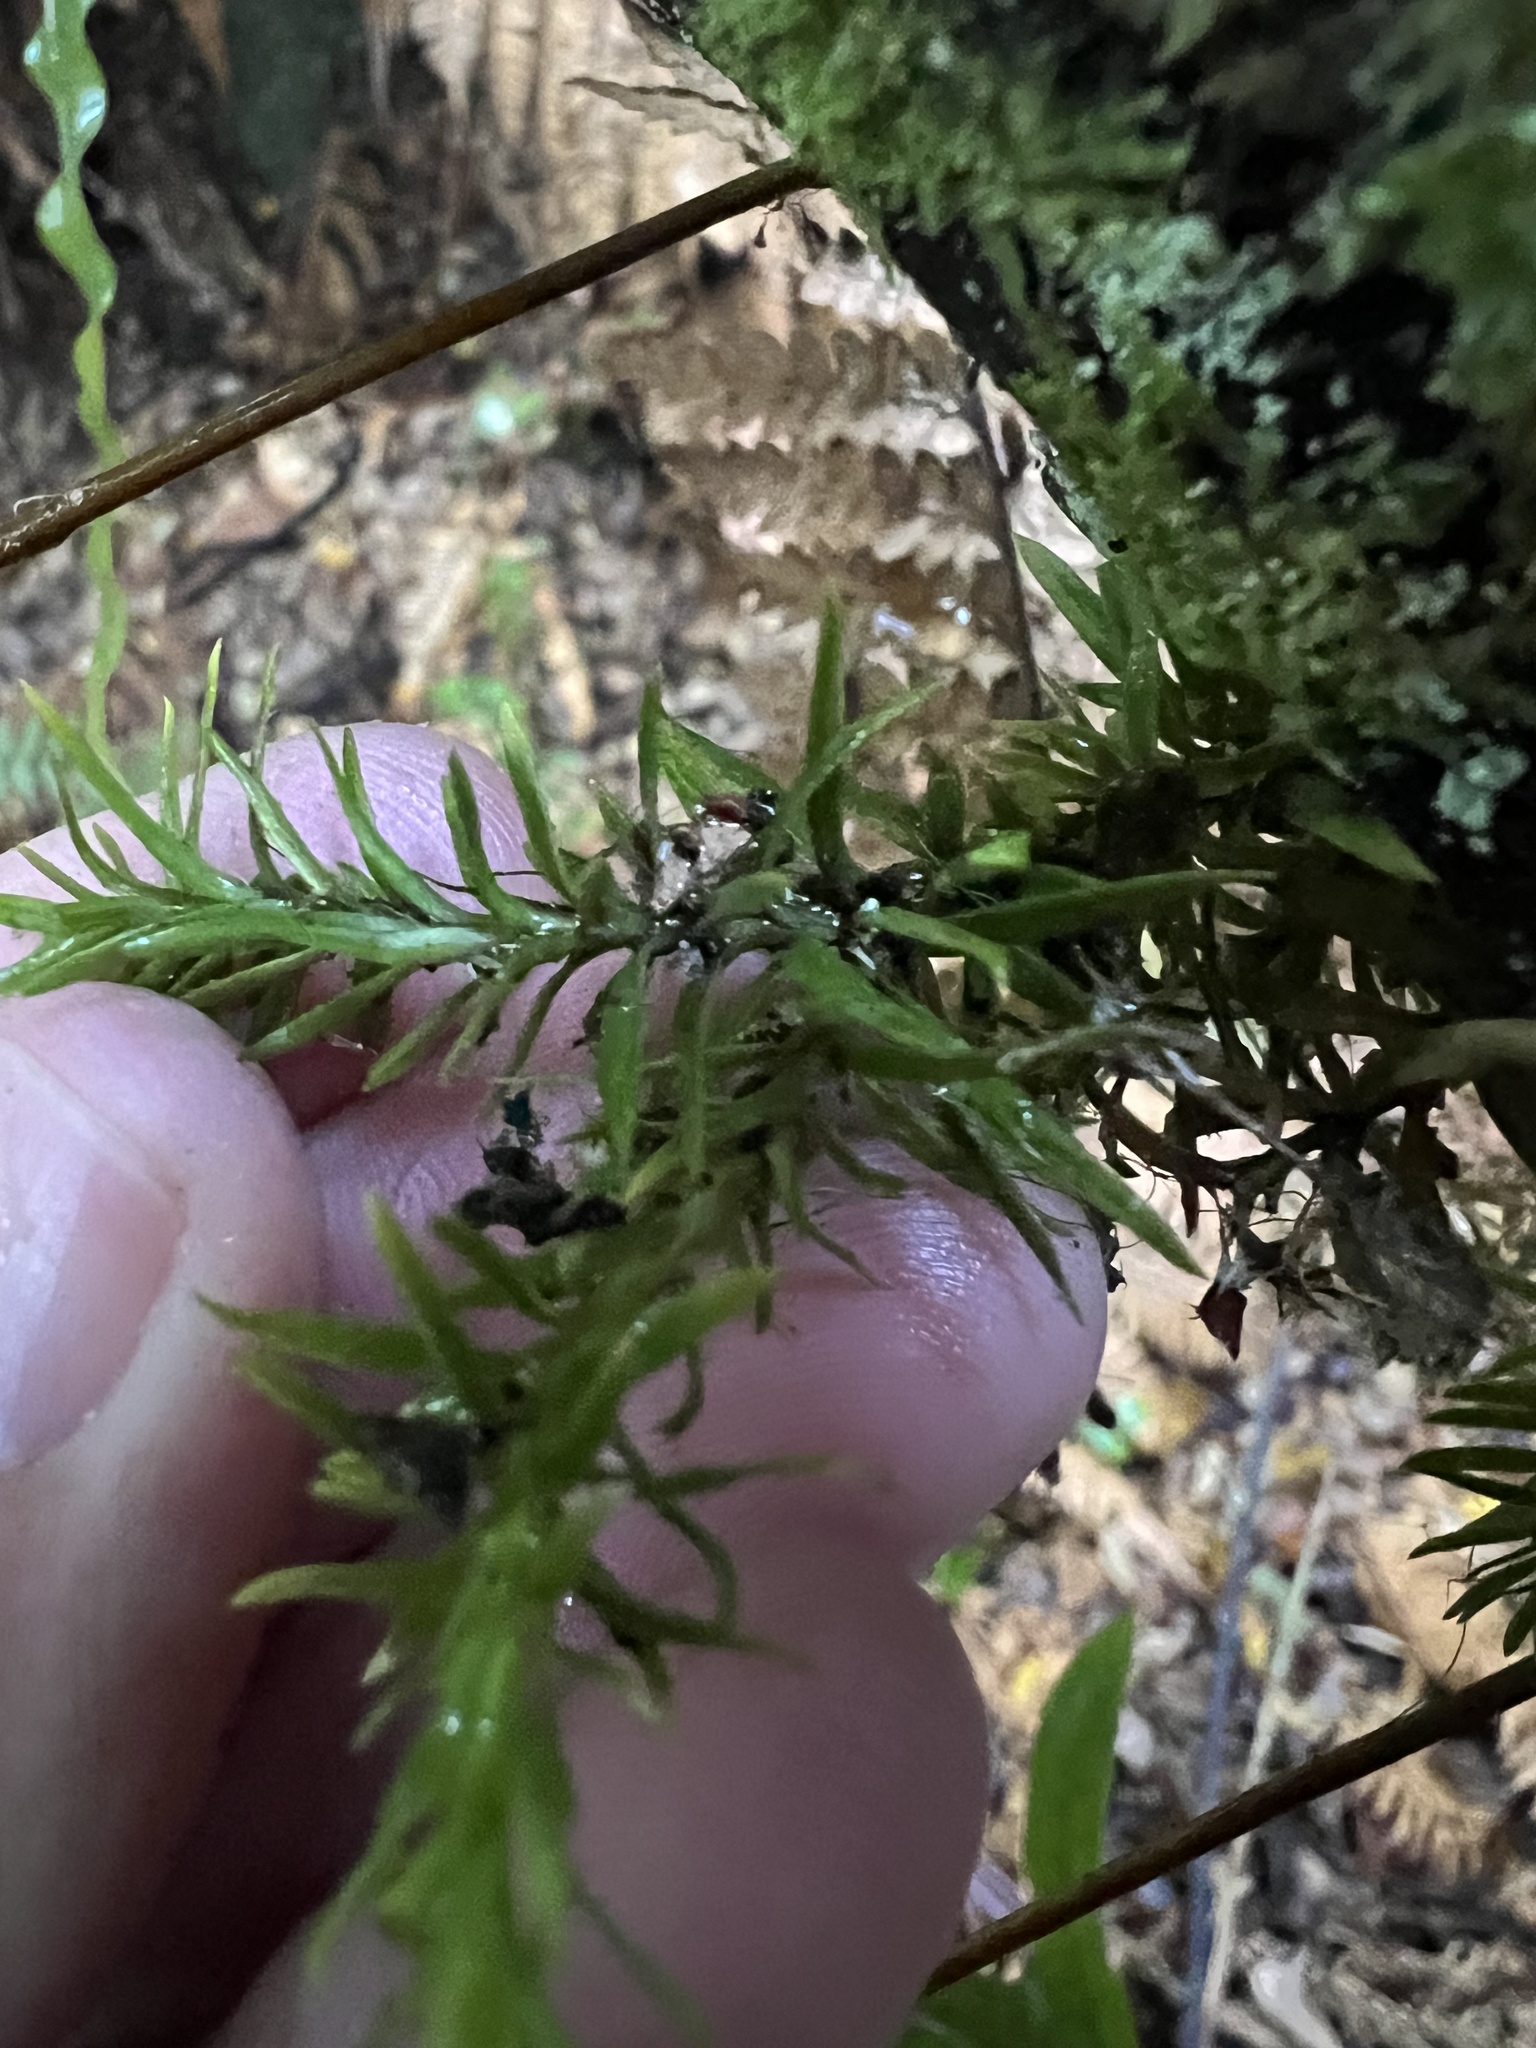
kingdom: Plantae
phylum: Tracheophyta
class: Lycopodiopsida
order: Lycopodiales
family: Lycopodiaceae
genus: Phlegmariurus
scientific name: Phlegmariurus varius
